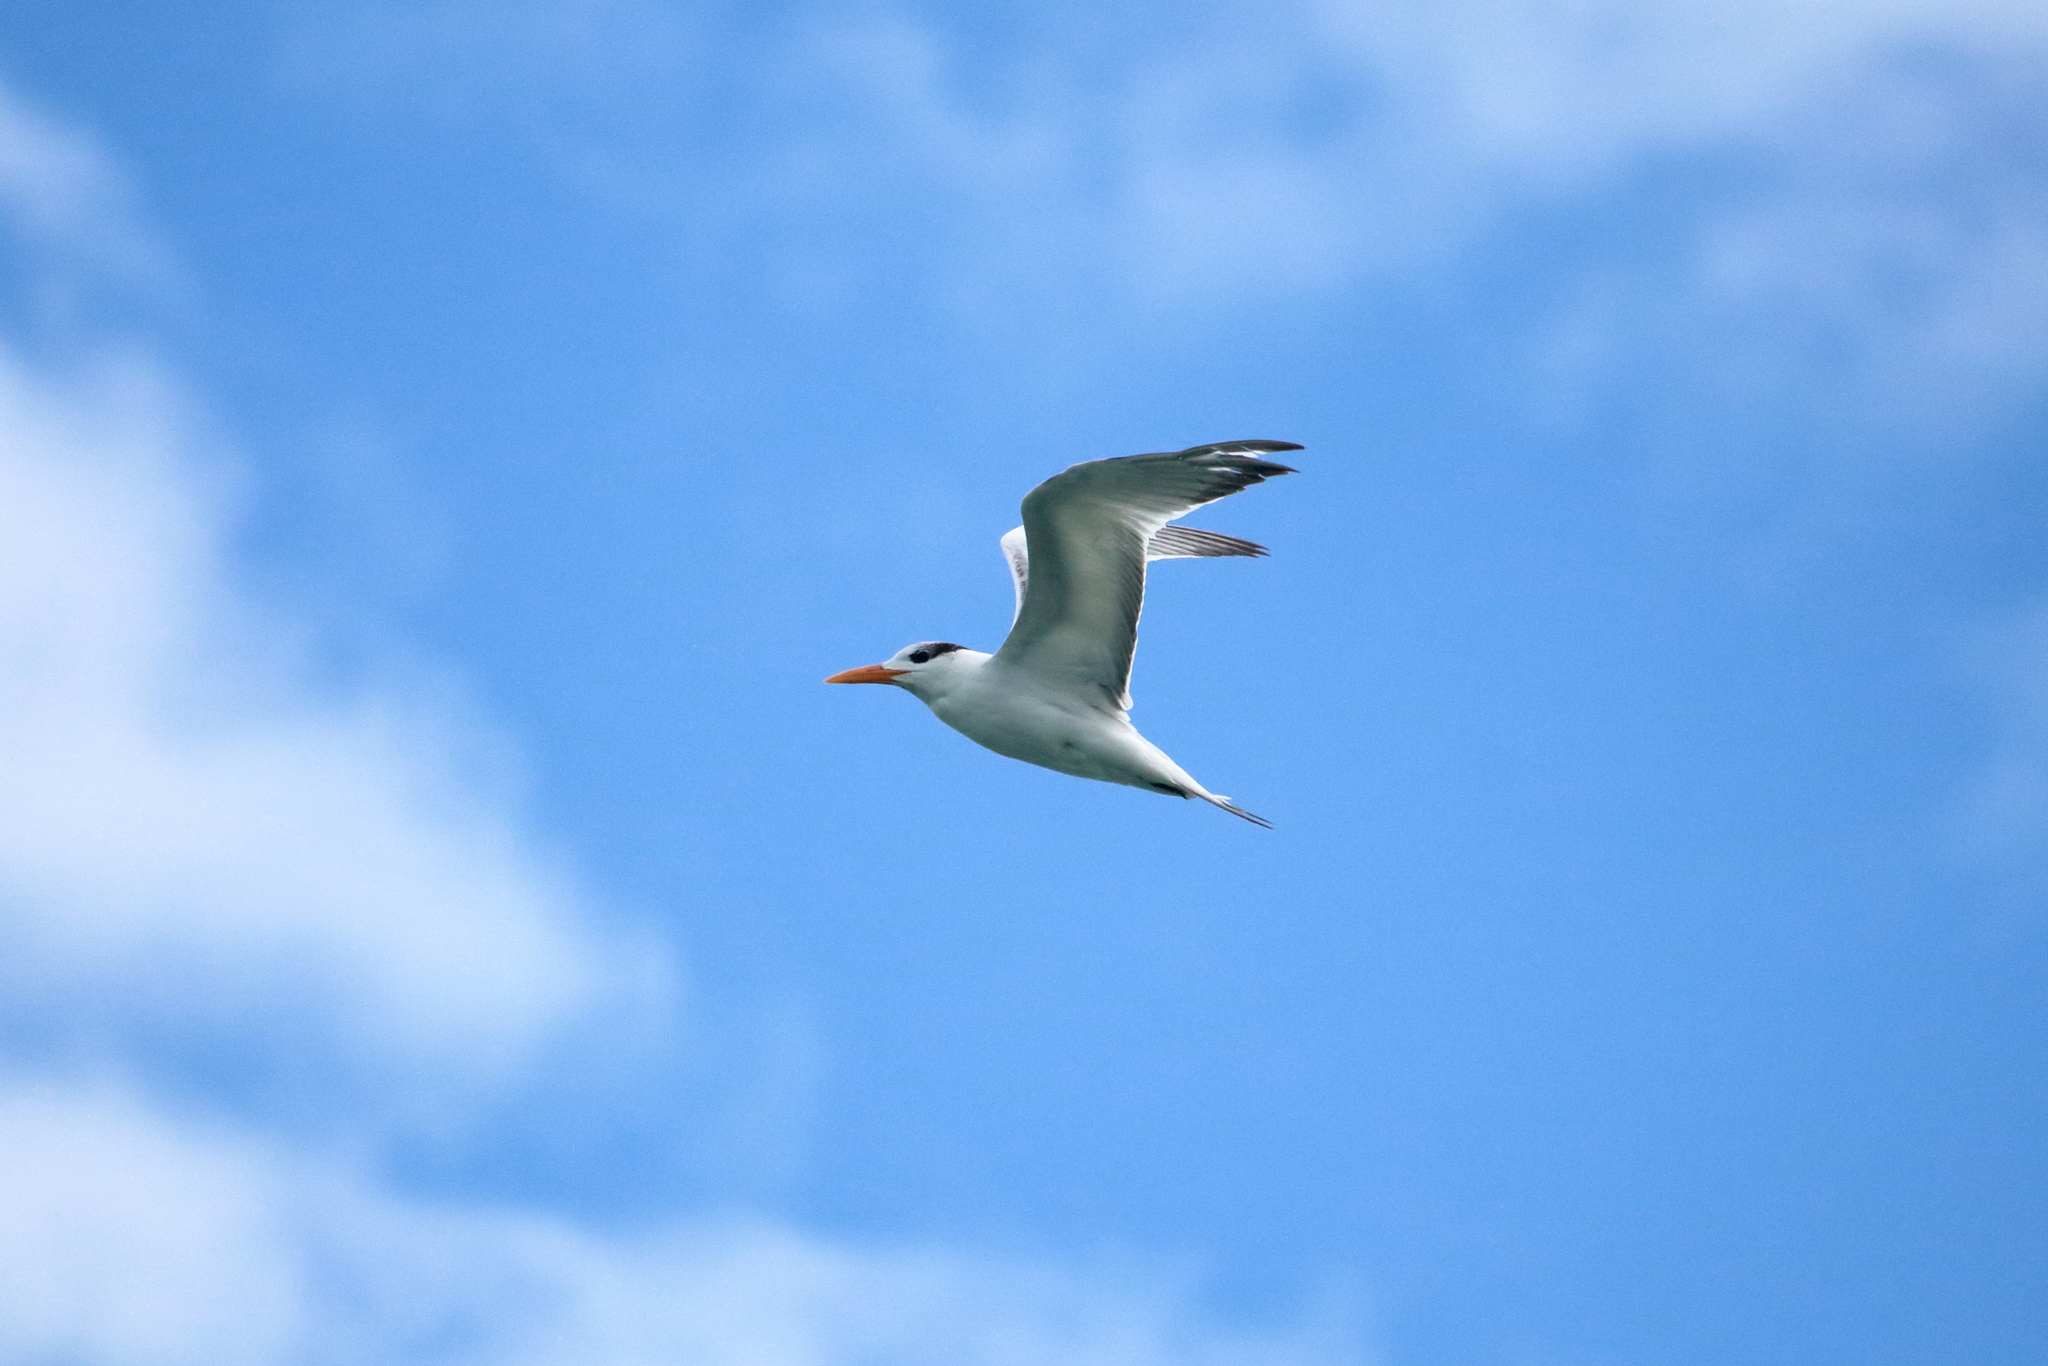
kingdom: Animalia
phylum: Chordata
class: Aves
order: Charadriiformes
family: Laridae
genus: Thalasseus
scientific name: Thalasseus maximus
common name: Royal tern
